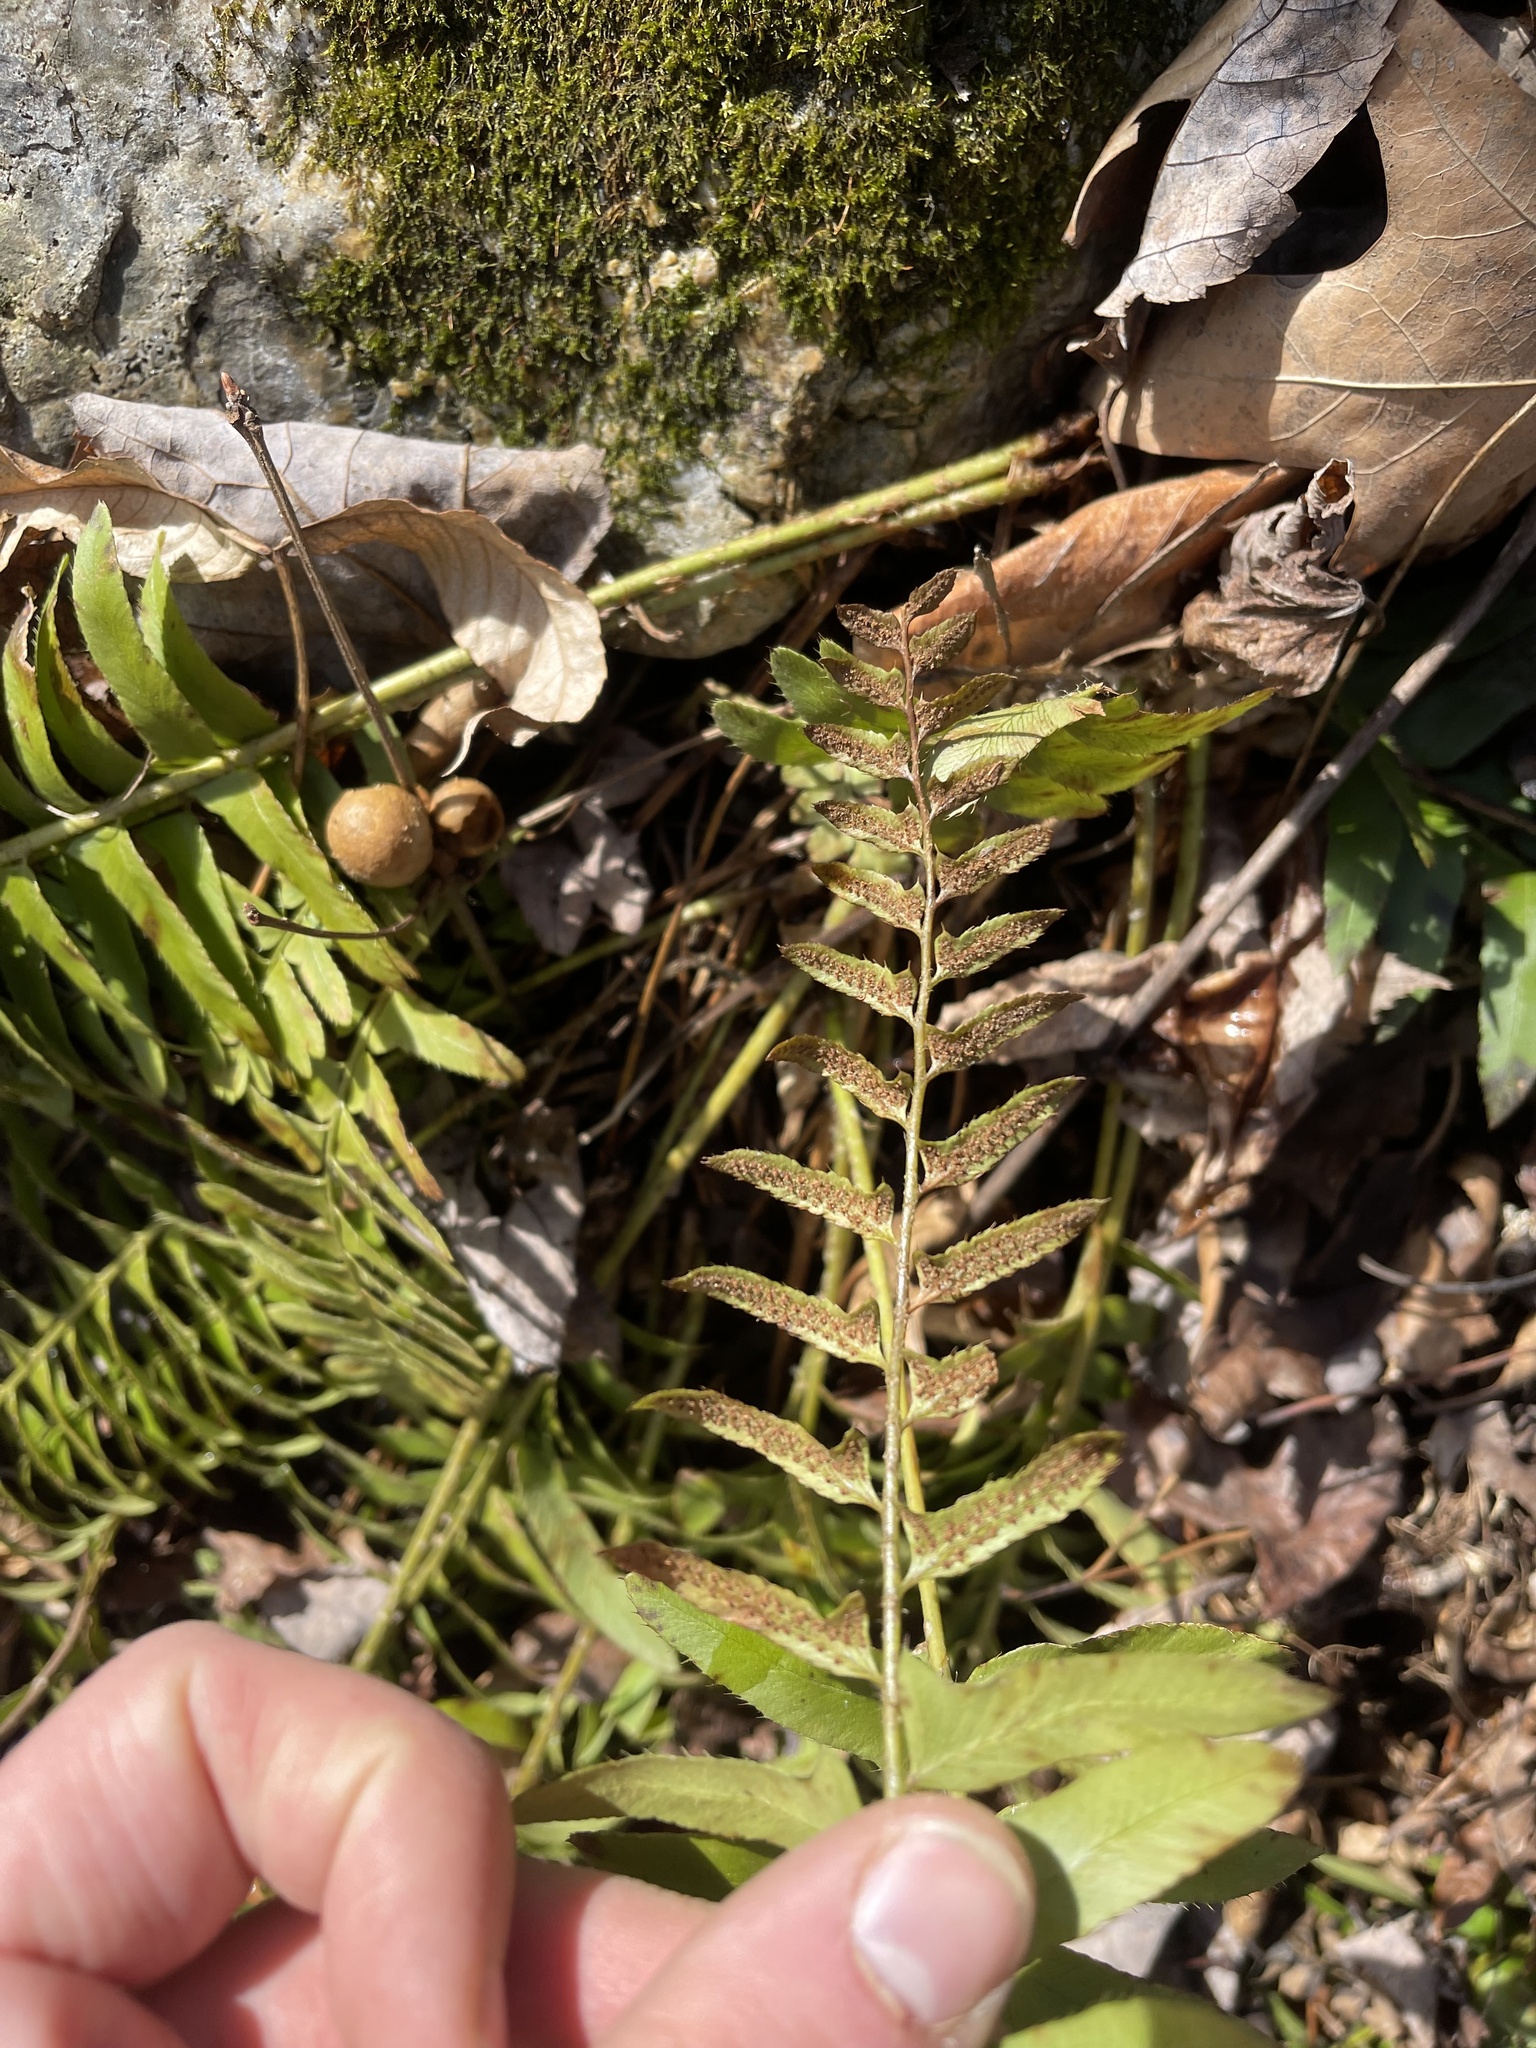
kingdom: Plantae
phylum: Tracheophyta
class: Polypodiopsida
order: Polypodiales
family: Dryopteridaceae
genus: Polystichum
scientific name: Polystichum acrostichoides
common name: Christmas fern
